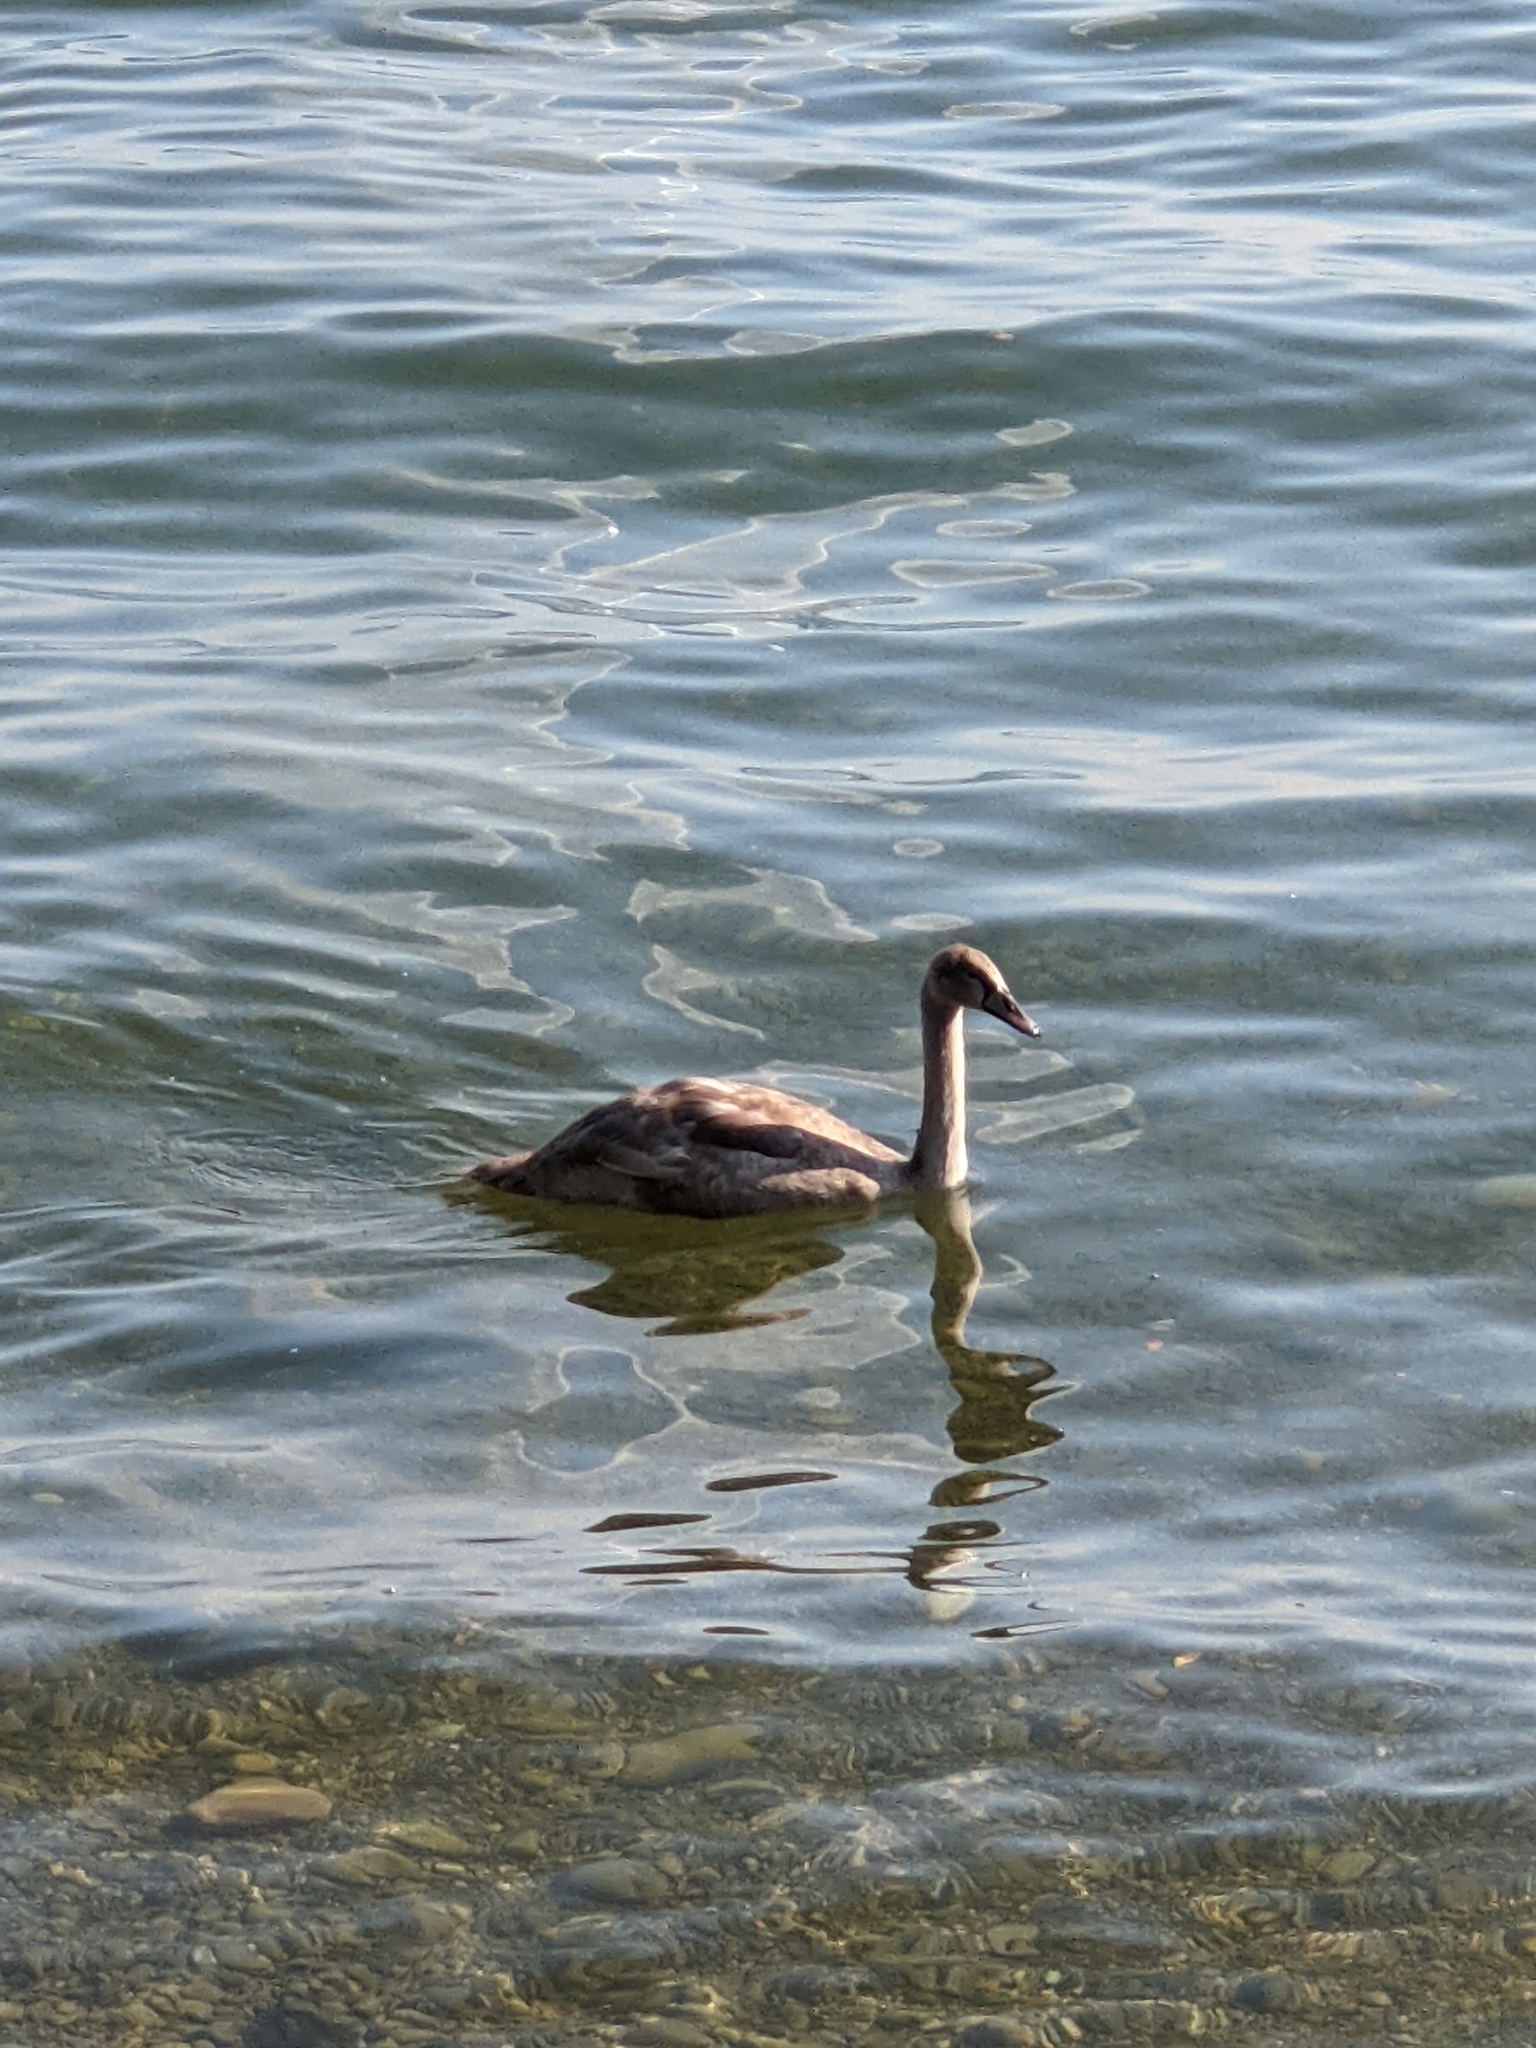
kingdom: Animalia
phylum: Chordata
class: Aves
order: Anseriformes
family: Anatidae
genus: Cygnus
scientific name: Cygnus olor
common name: Mute swan
